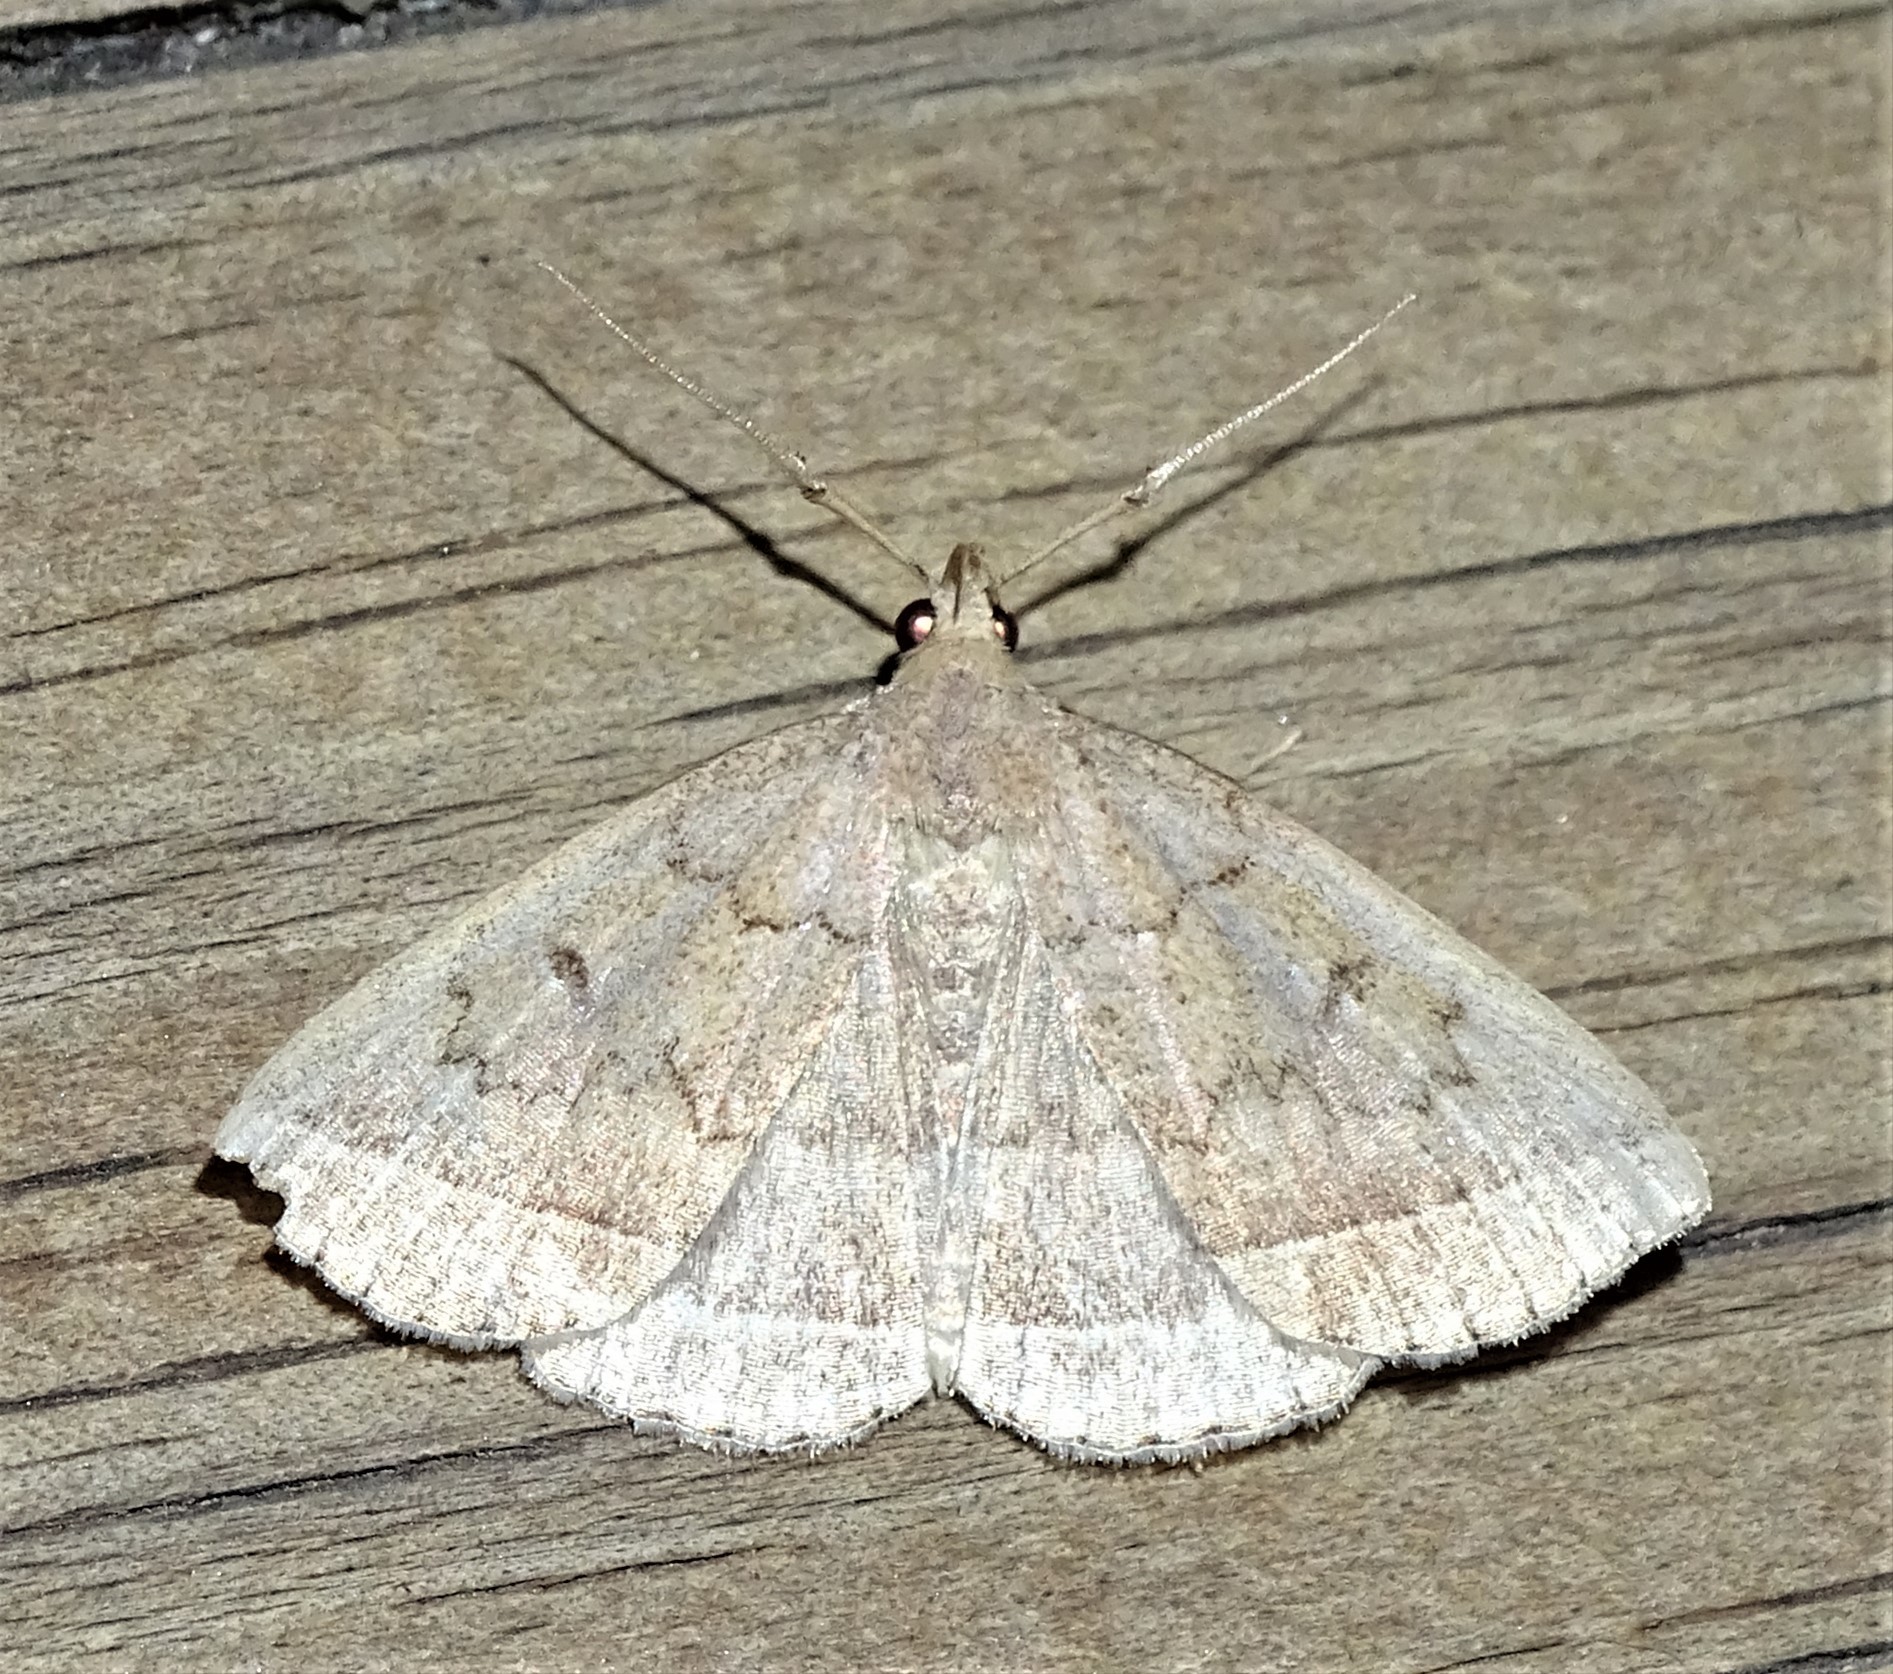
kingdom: Animalia
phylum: Arthropoda
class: Insecta
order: Lepidoptera
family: Erebidae
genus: Zanclognatha
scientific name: Zanclognatha jacchusalis
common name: Yellowish zanclognatha
